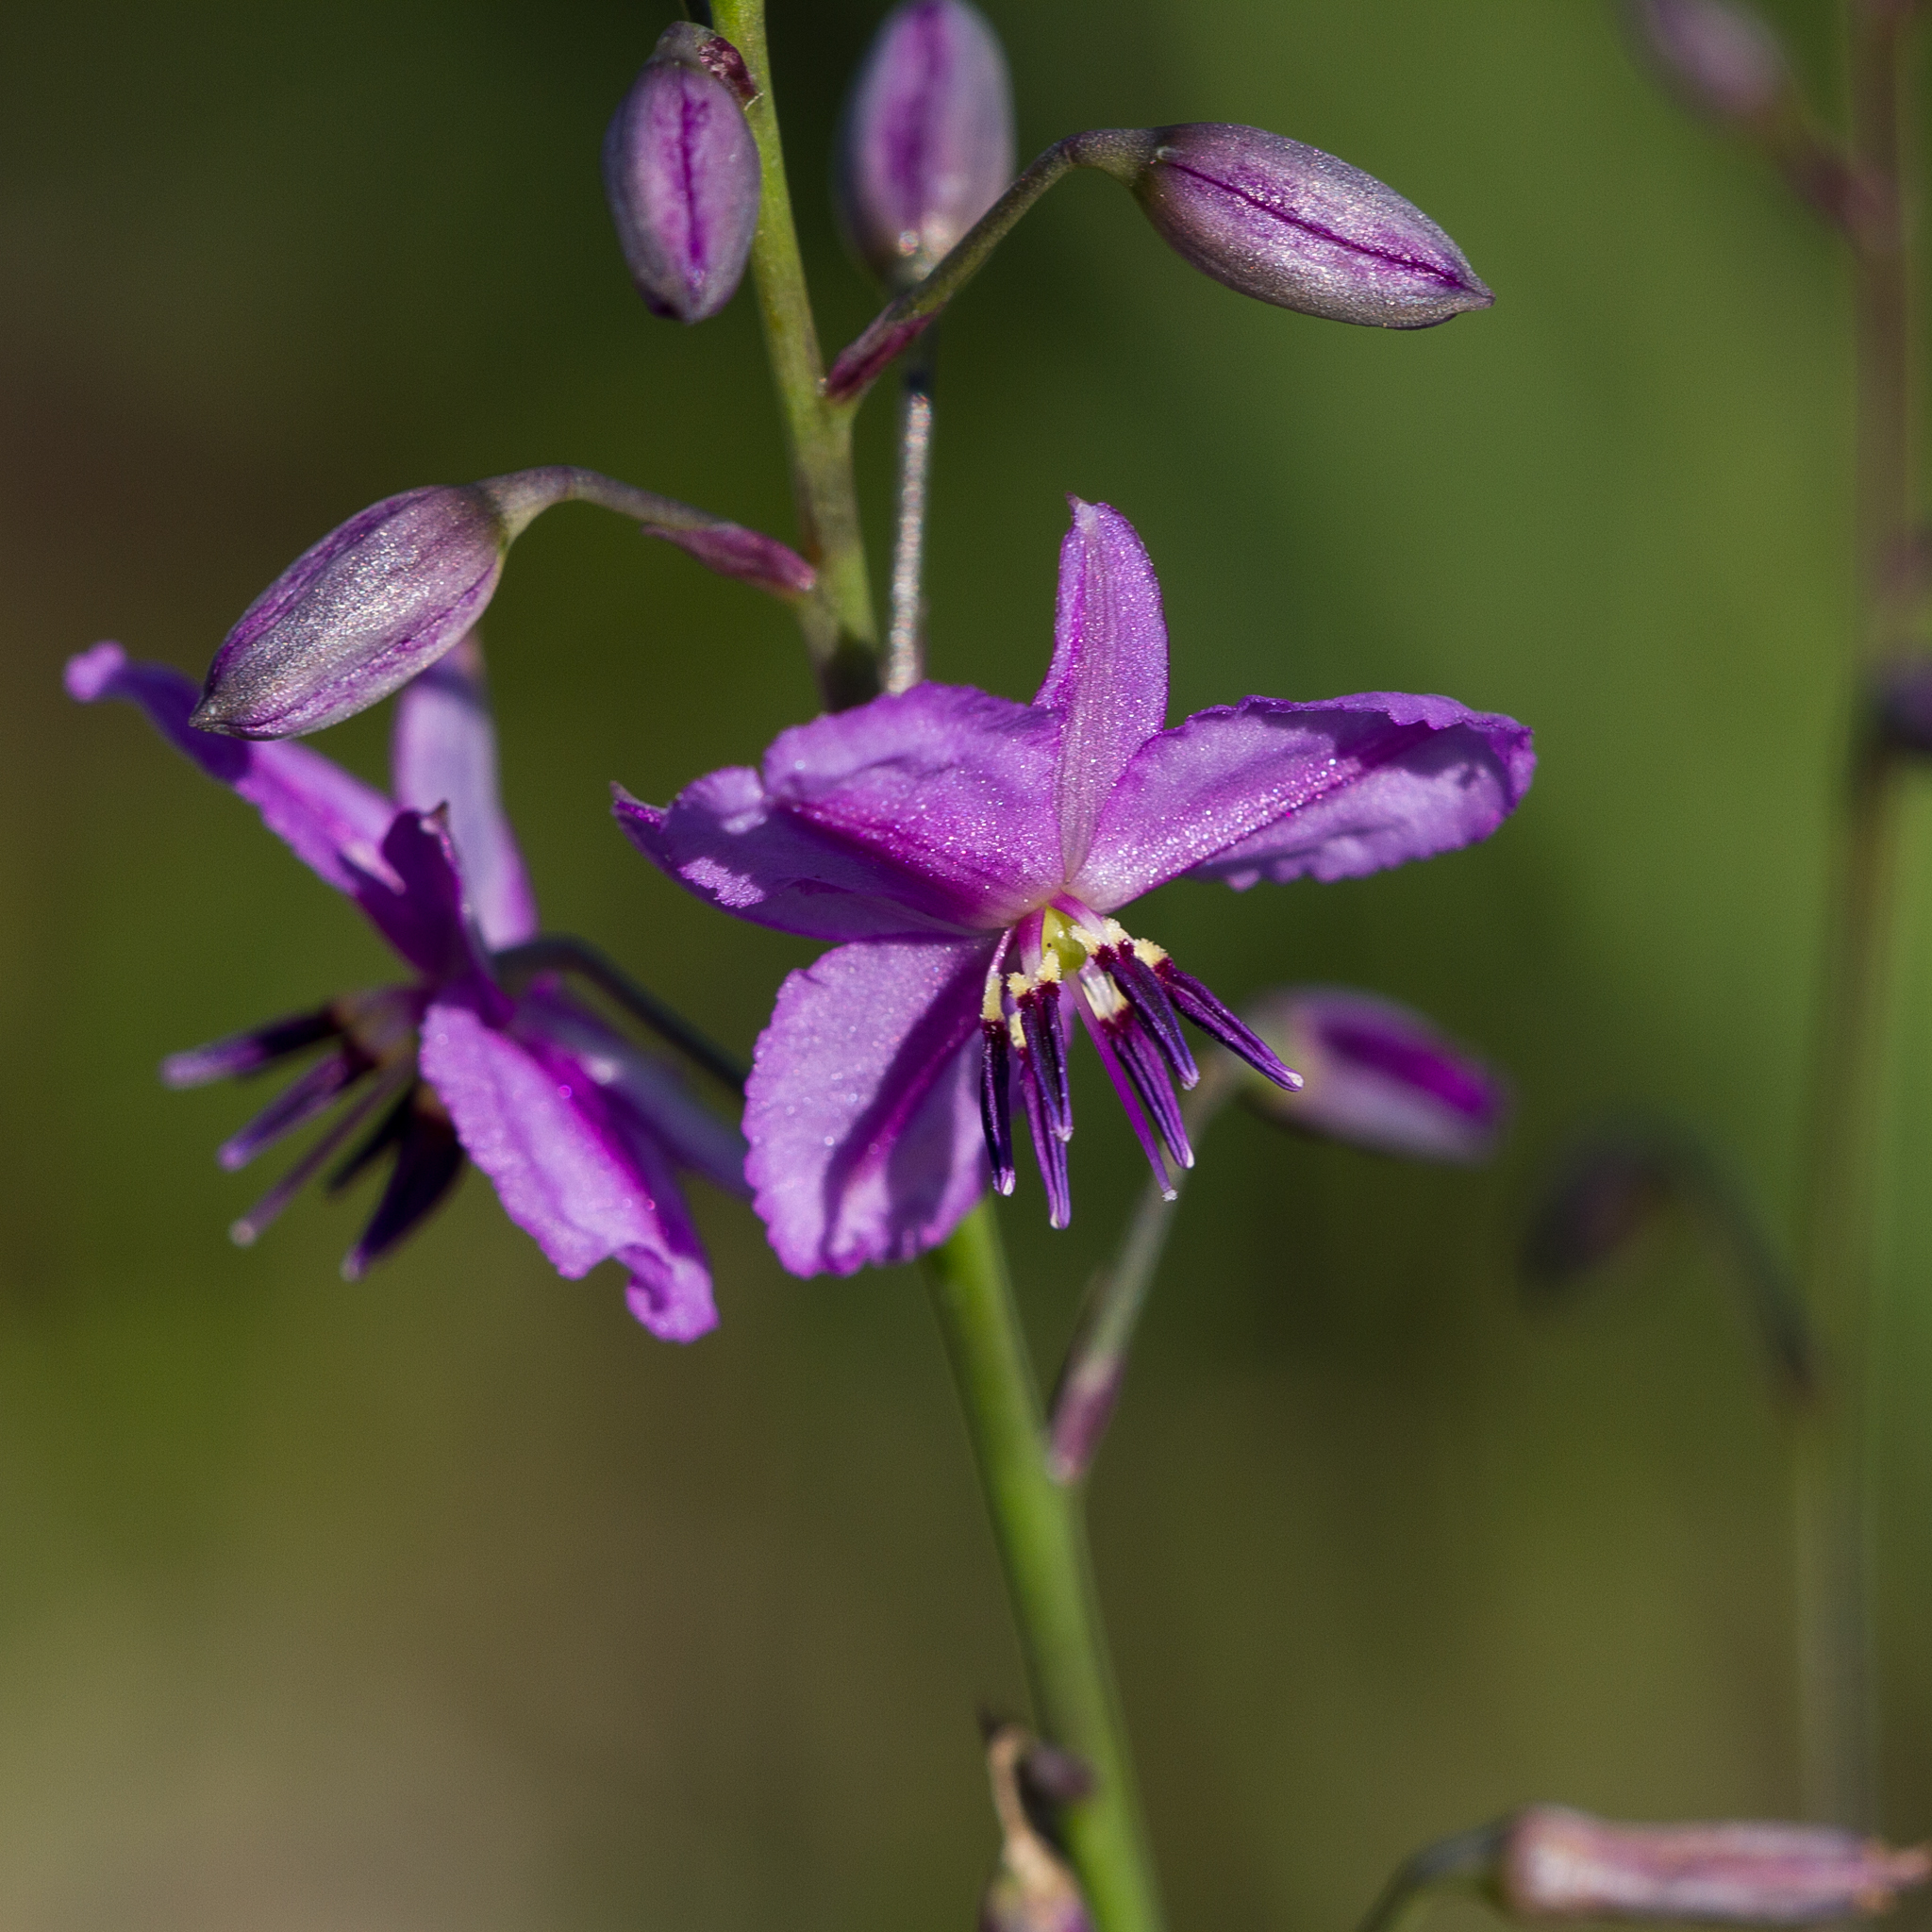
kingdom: Plantae
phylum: Tracheophyta
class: Liliopsida
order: Asparagales
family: Asparagaceae
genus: Arthropodium
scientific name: Arthropodium strictum
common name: Chocolate-lily
